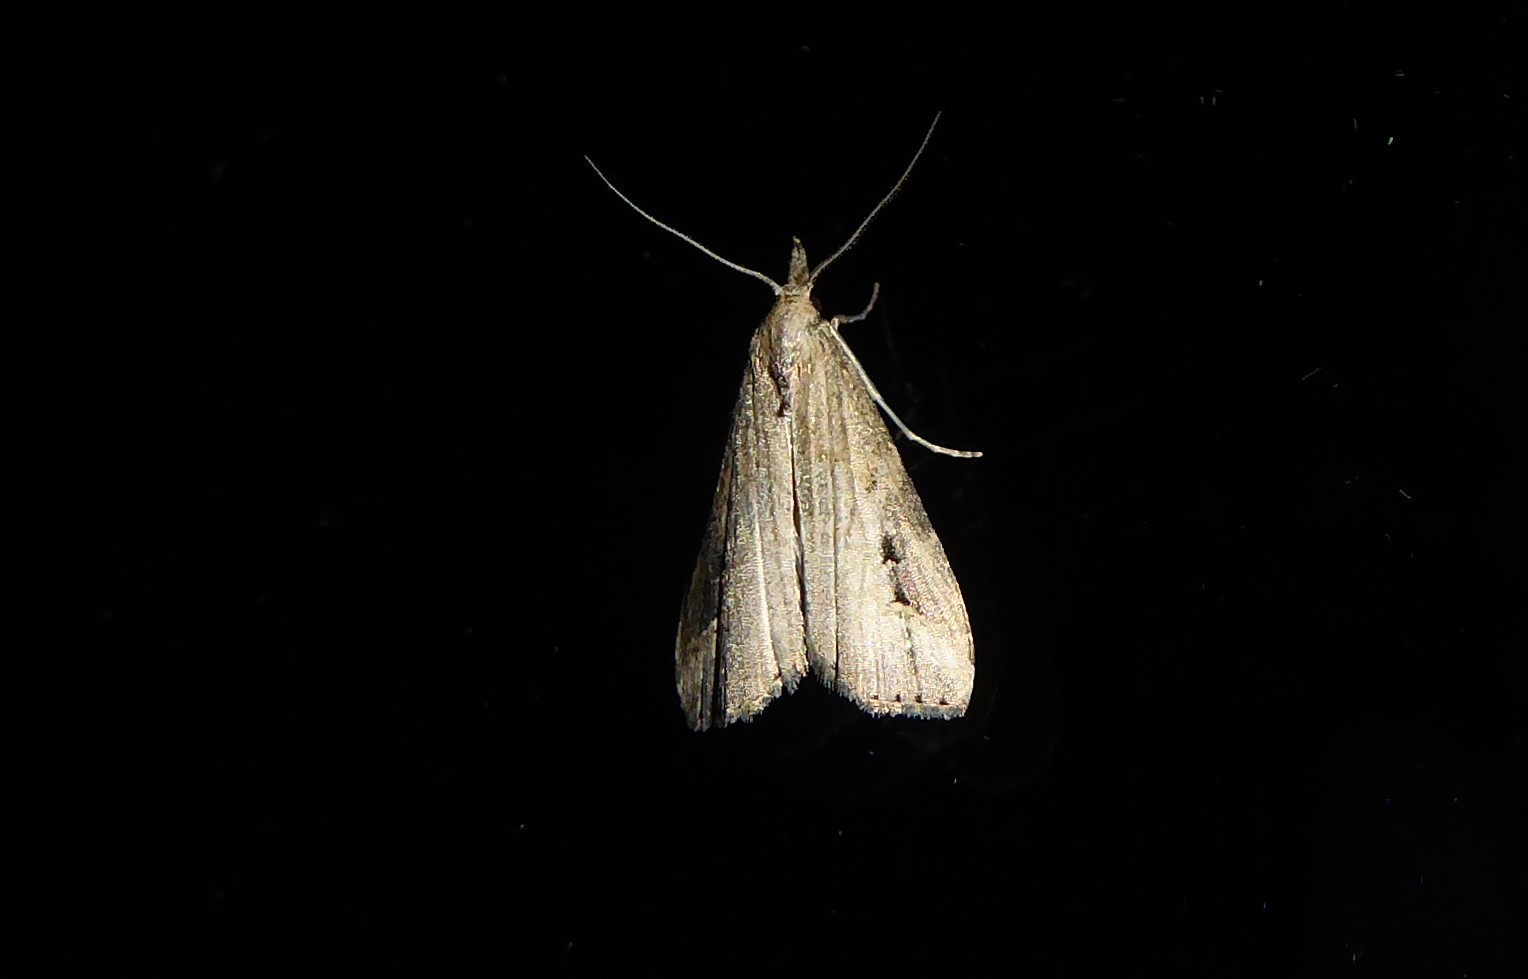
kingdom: Animalia
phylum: Arthropoda
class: Insecta
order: Lepidoptera
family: Erebidae
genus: Schrankia
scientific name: Schrankia costaestrigalis
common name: Pinion-streaked snout
